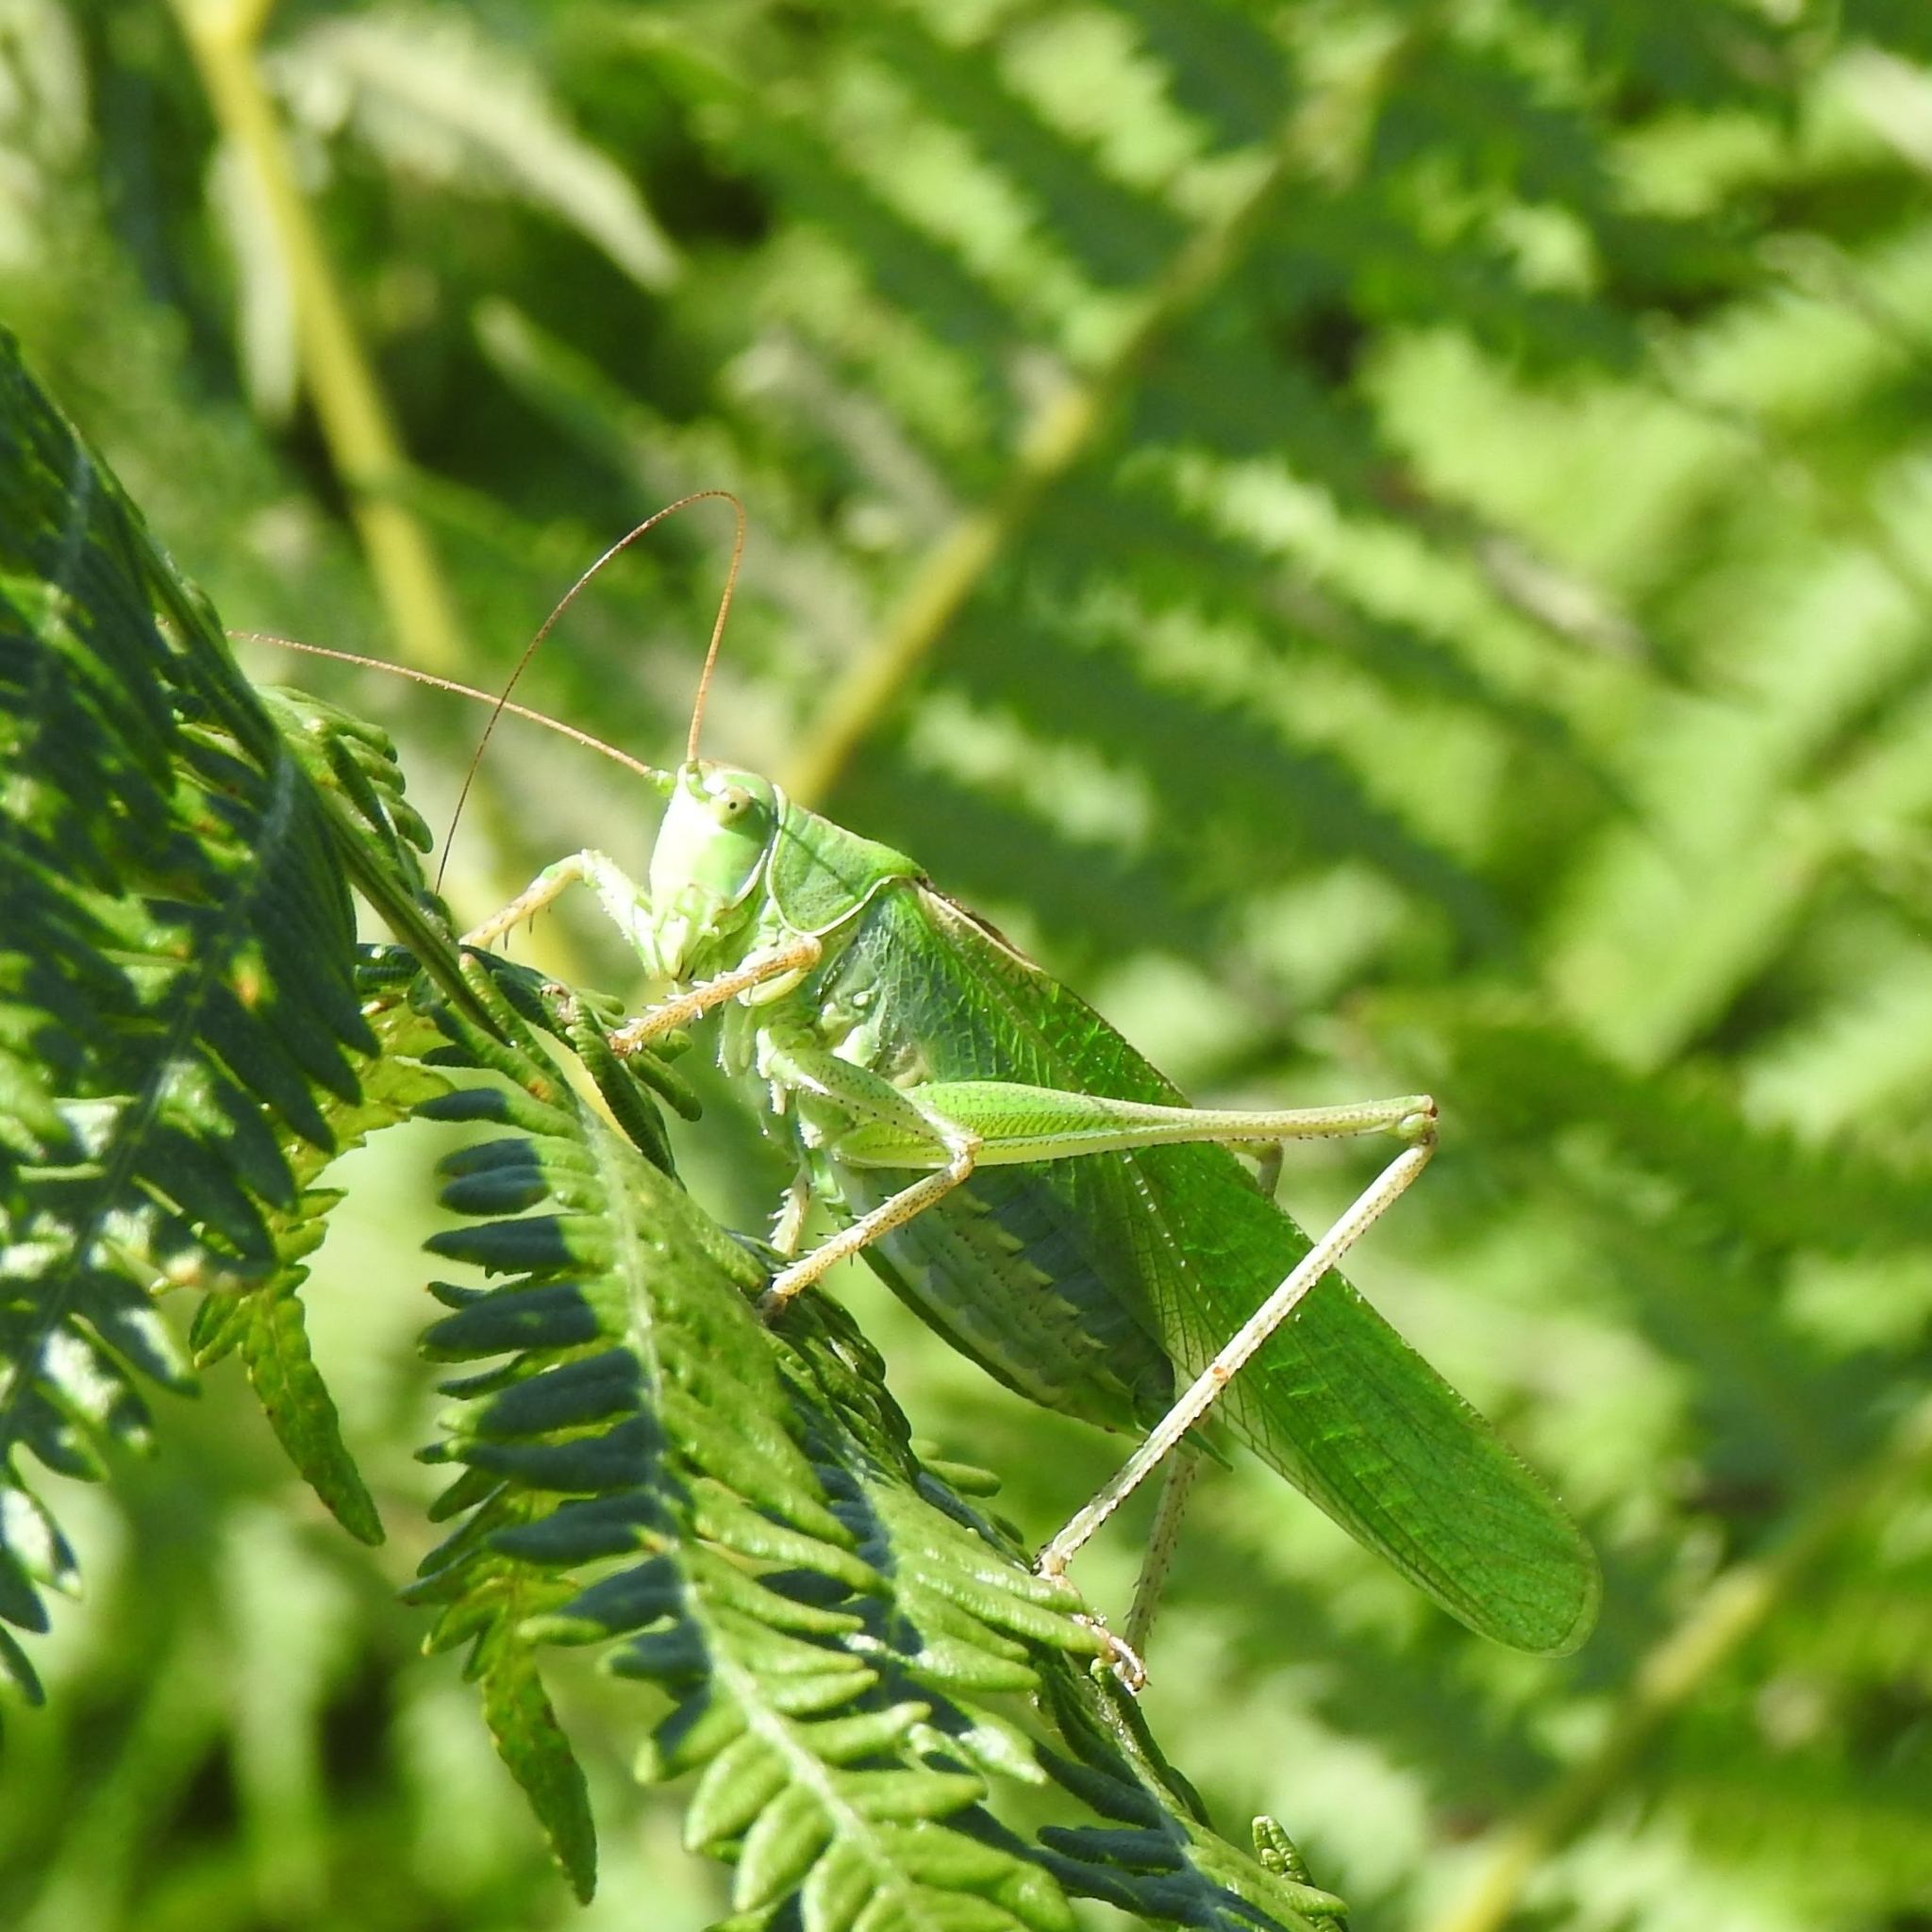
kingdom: Animalia
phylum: Arthropoda
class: Insecta
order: Orthoptera
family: Tettigoniidae
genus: Tettigonia
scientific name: Tettigonia viridissima
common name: Great green bush-cricket
